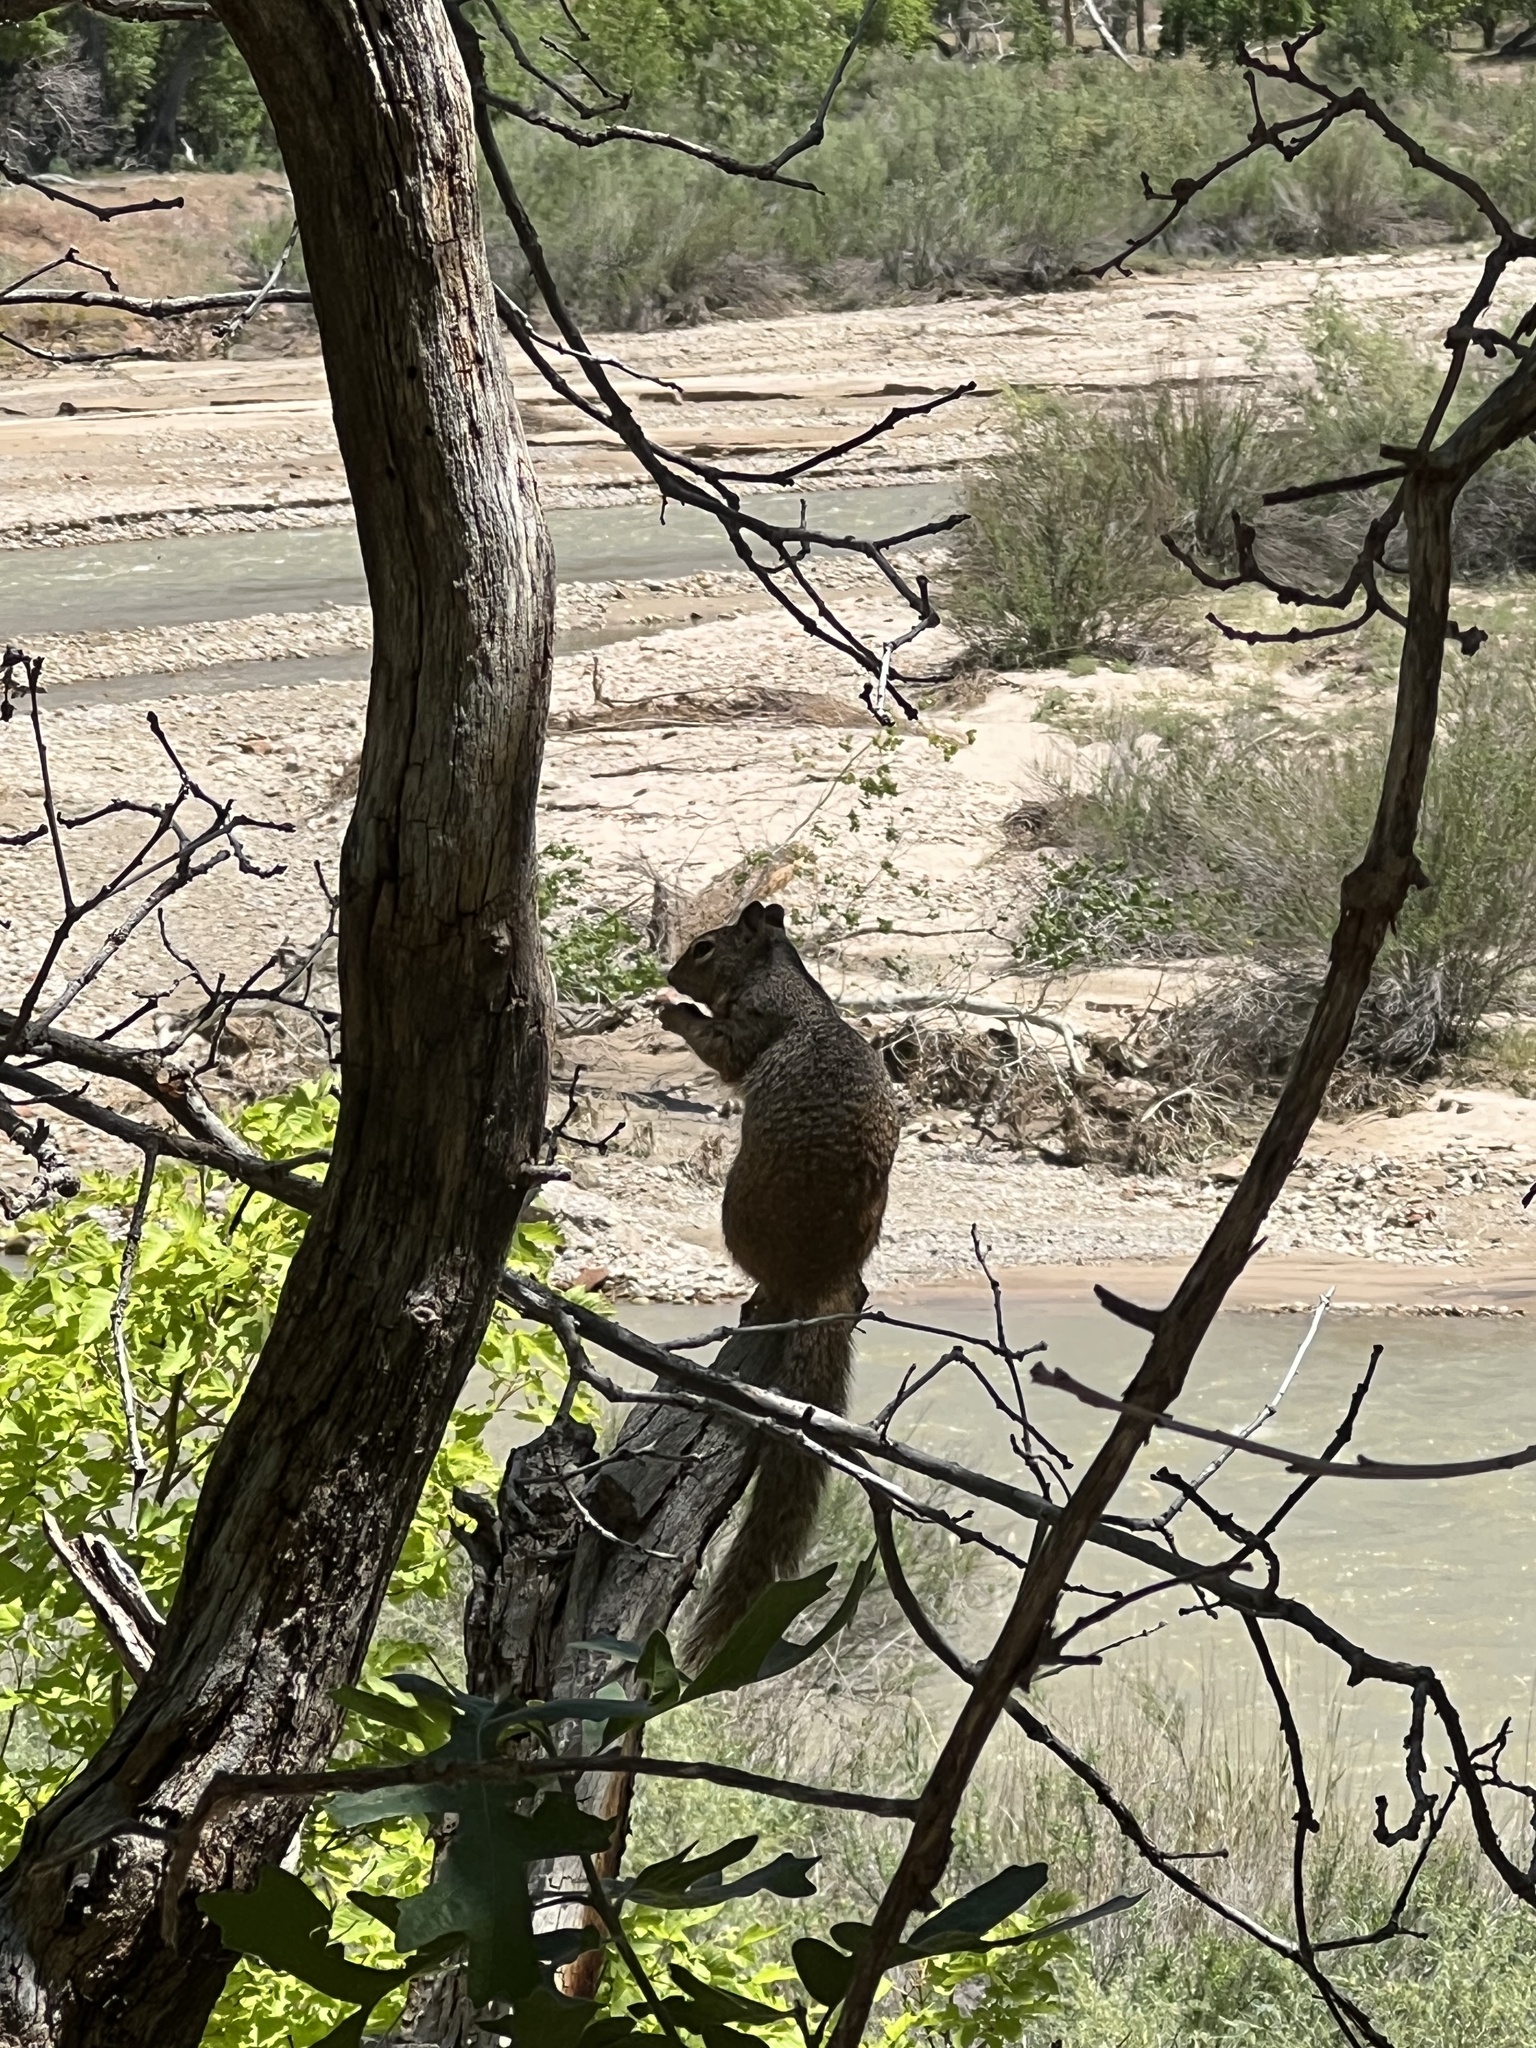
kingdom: Animalia
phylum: Chordata
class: Mammalia
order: Rodentia
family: Sciuridae
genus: Otospermophilus
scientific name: Otospermophilus variegatus
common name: Rock squirrel
